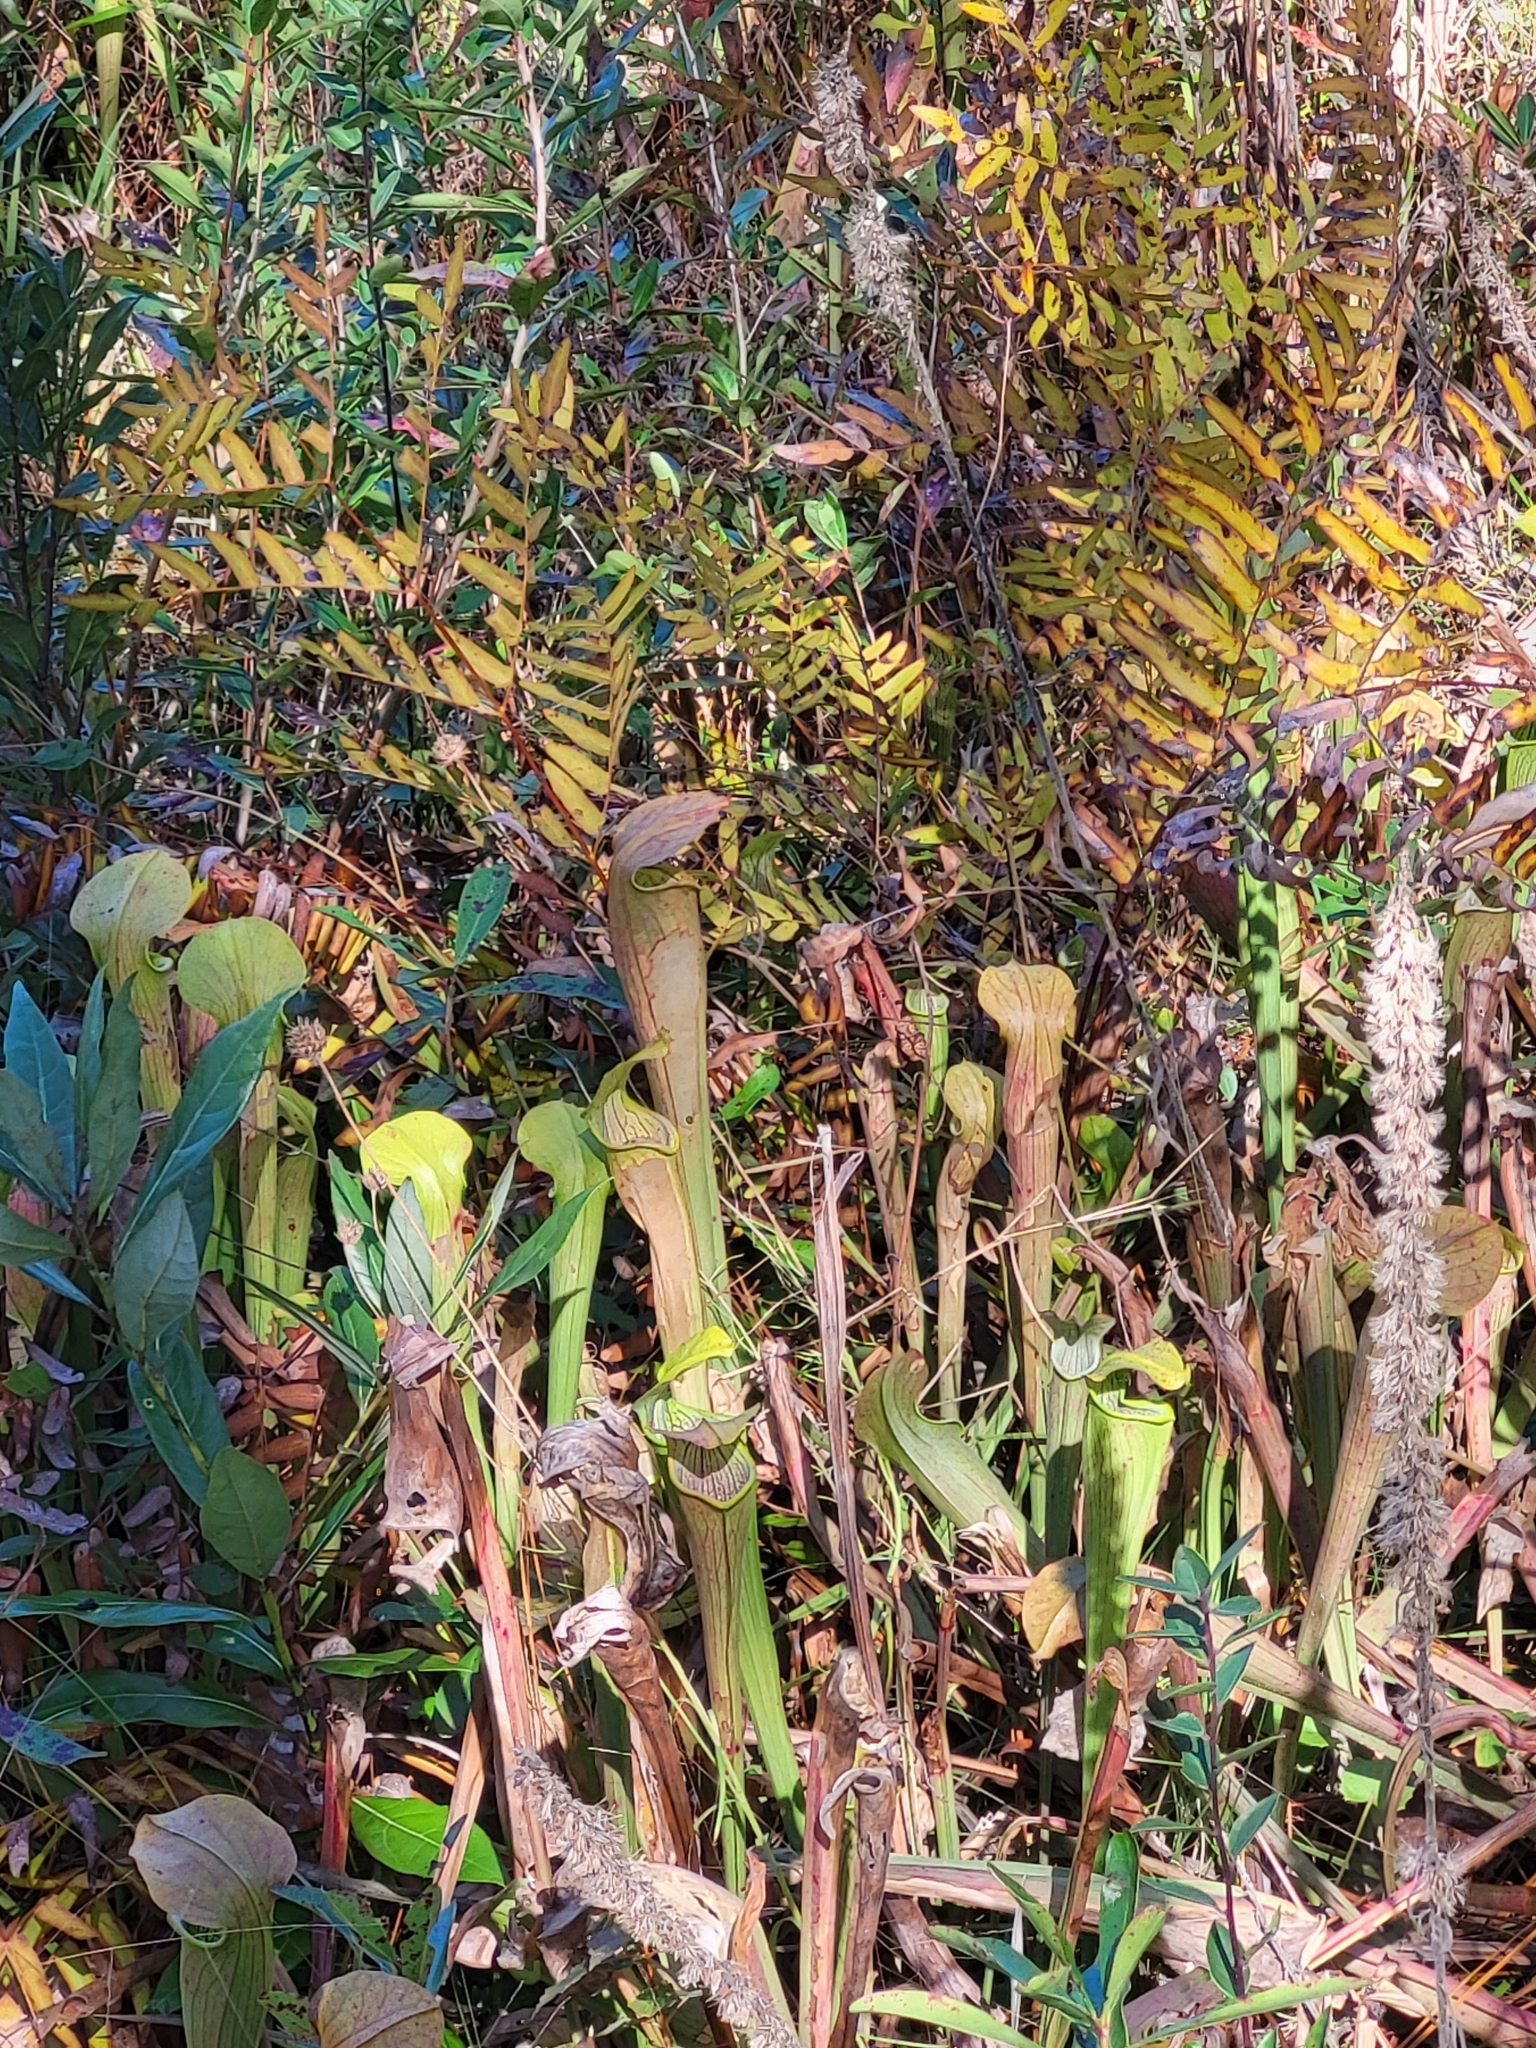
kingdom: Plantae
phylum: Tracheophyta
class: Magnoliopsida
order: Ericales
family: Sarraceniaceae
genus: Sarracenia
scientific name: Sarracenia alata
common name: Yellow trumpets
